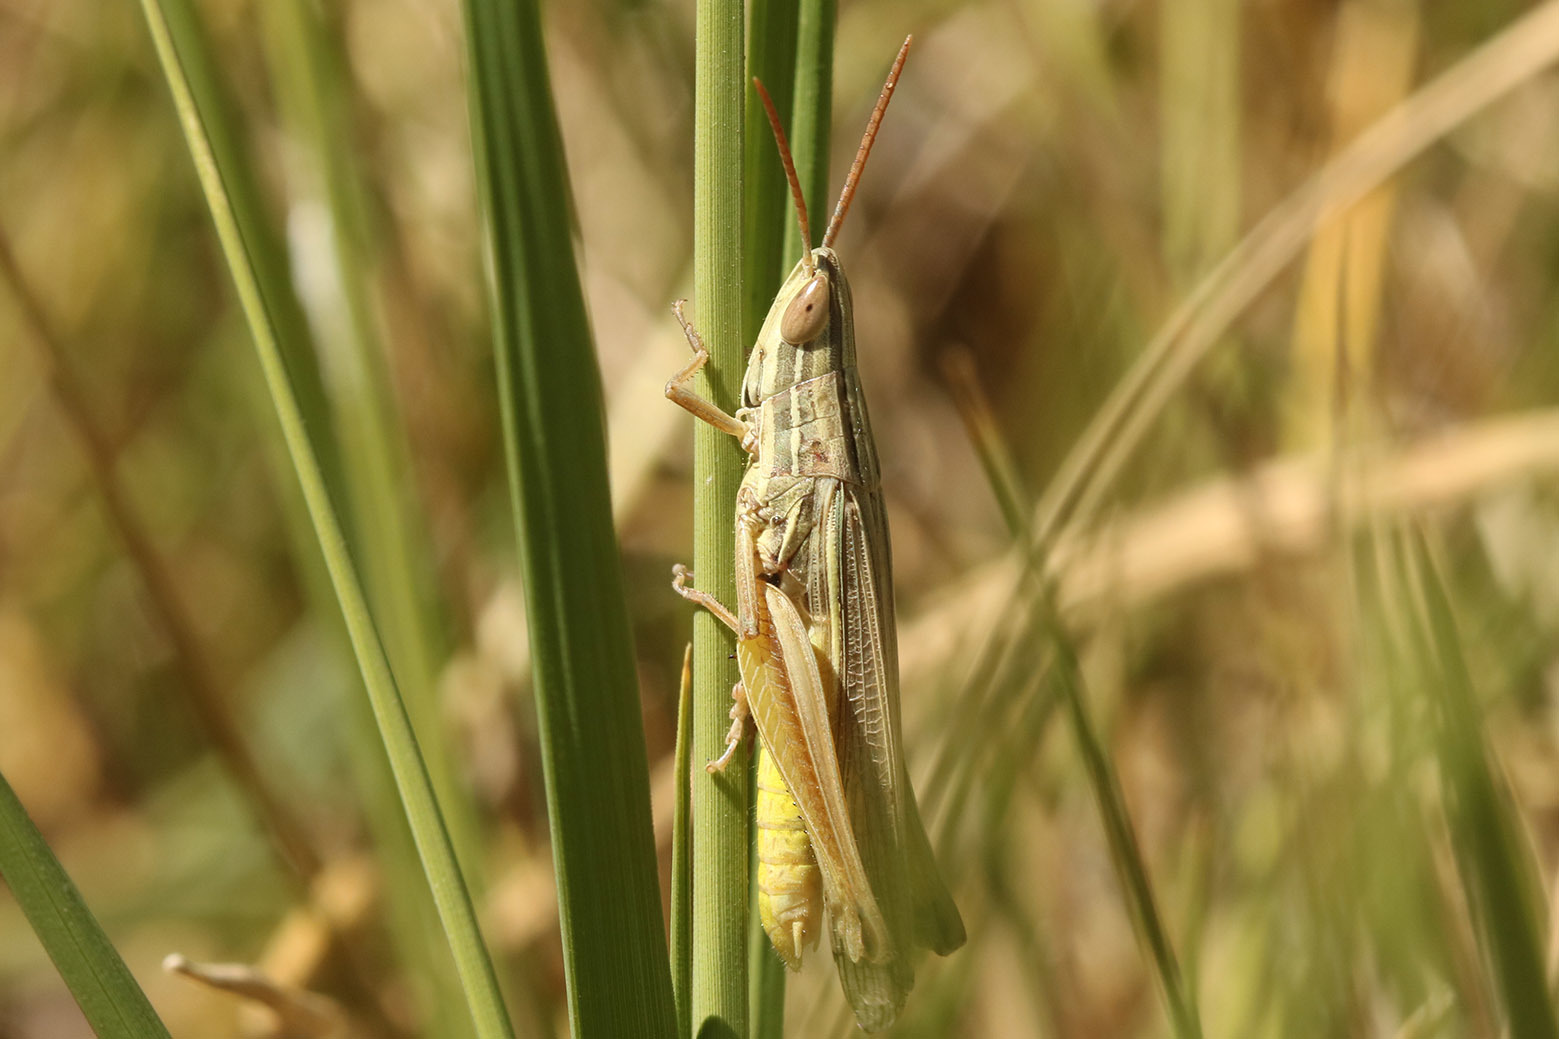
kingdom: Animalia
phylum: Arthropoda
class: Insecta
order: Orthoptera
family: Acrididae
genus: Sinipta
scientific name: Sinipta dalmani
